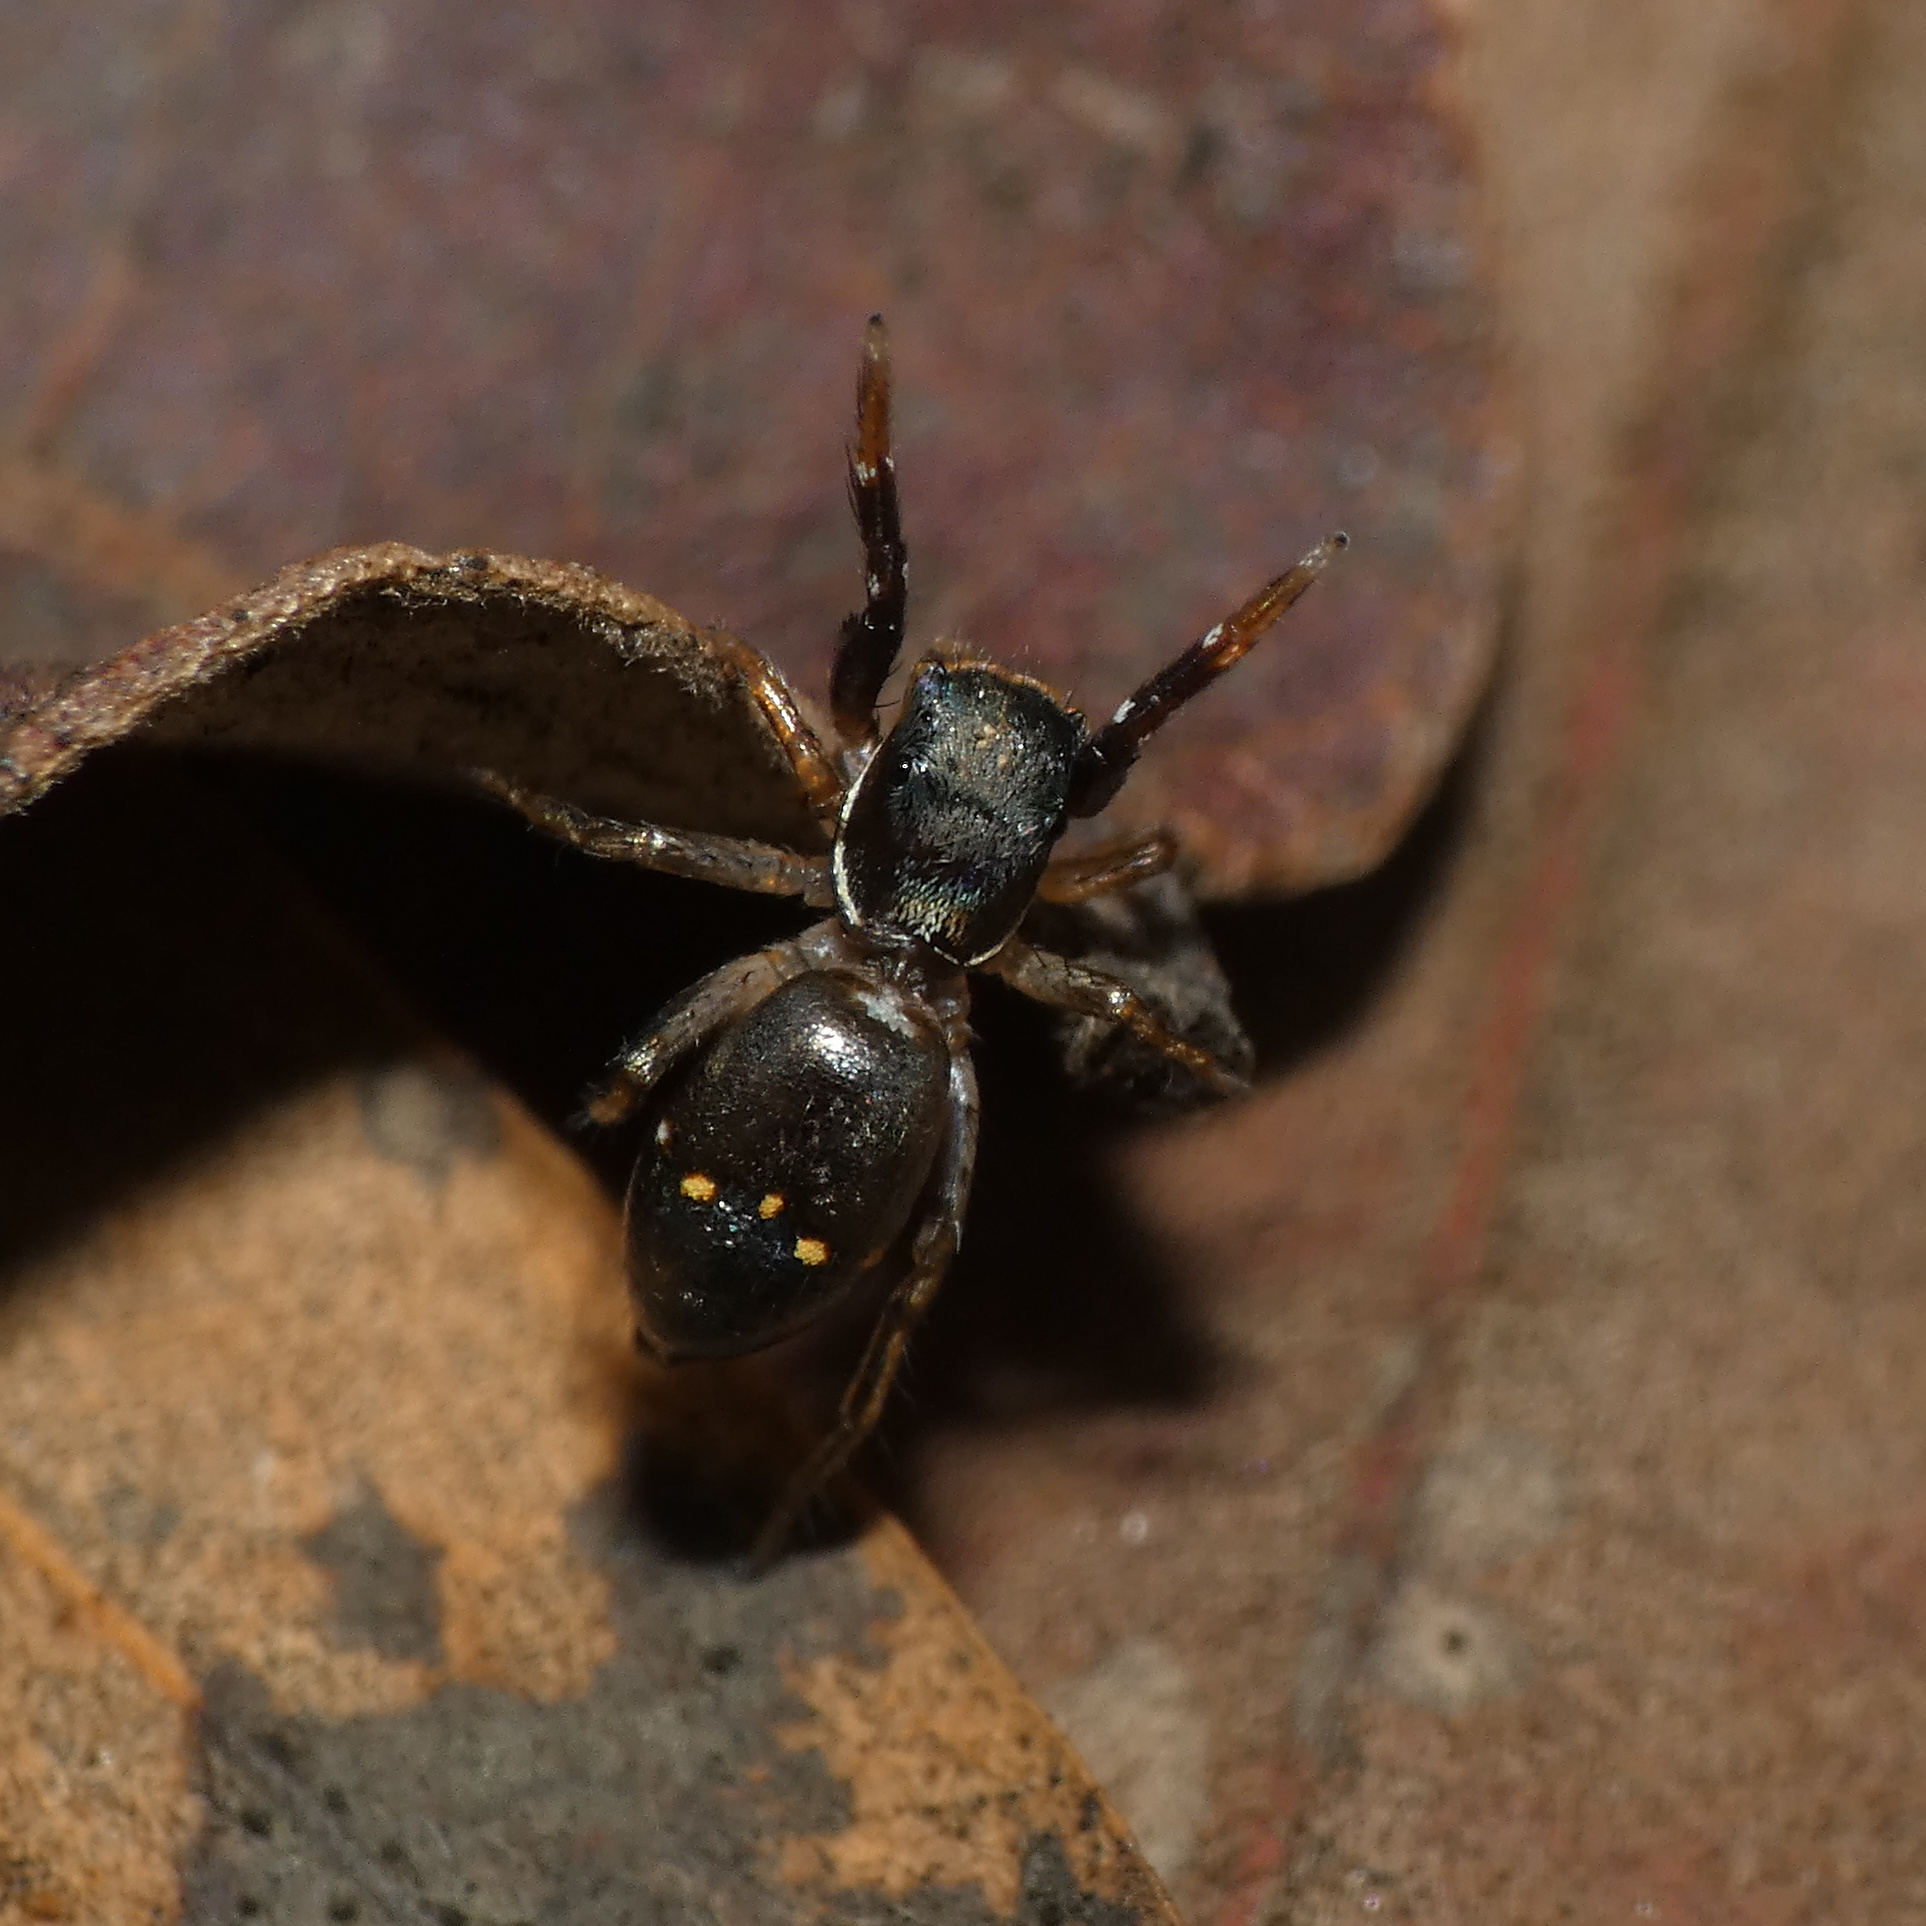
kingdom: Animalia
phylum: Arthropoda
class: Arachnida
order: Araneae
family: Salticidae
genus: Natta
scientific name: Natta horizontalis
